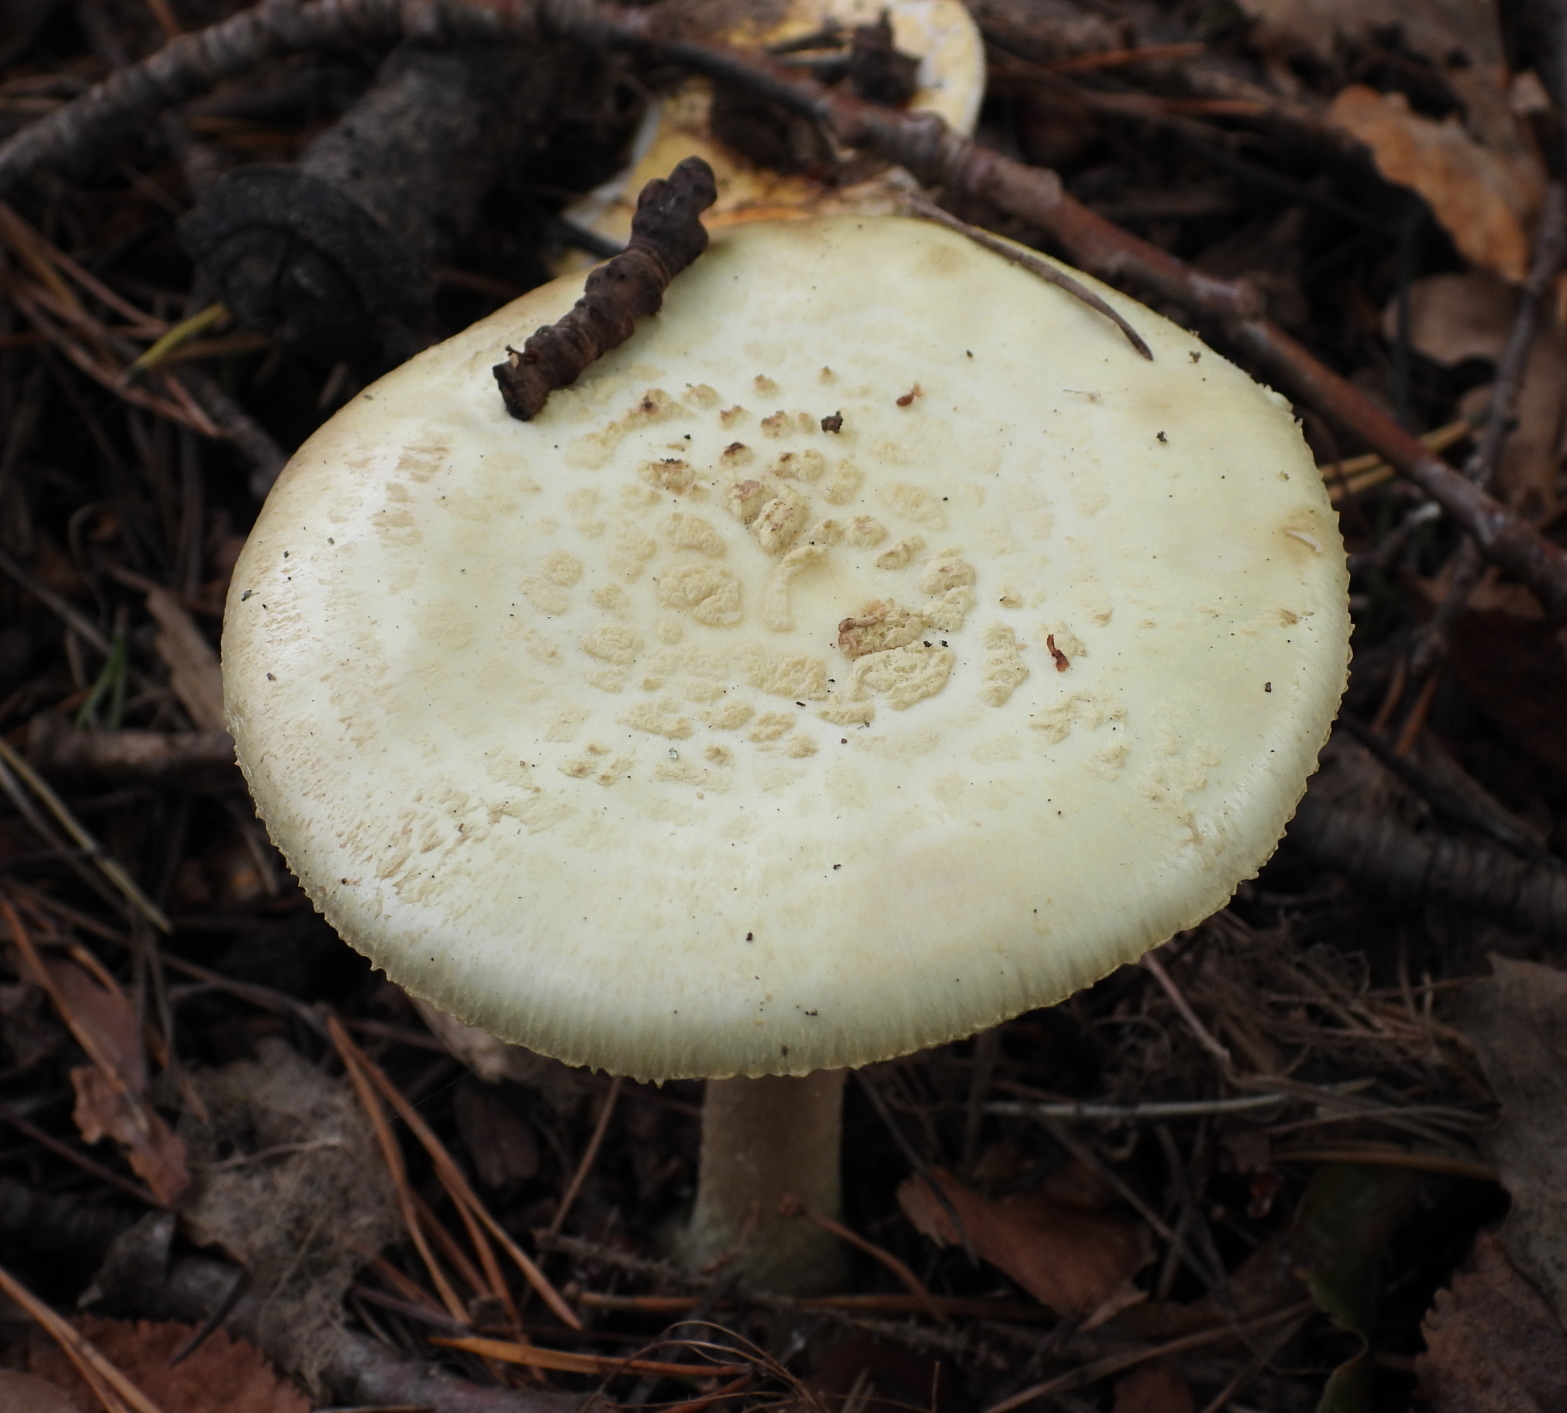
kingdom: Fungi
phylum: Basidiomycota
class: Agaricomycetes
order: Agaricales
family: Amanitaceae
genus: Amanita
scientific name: Amanita citrina
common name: False death-cap
